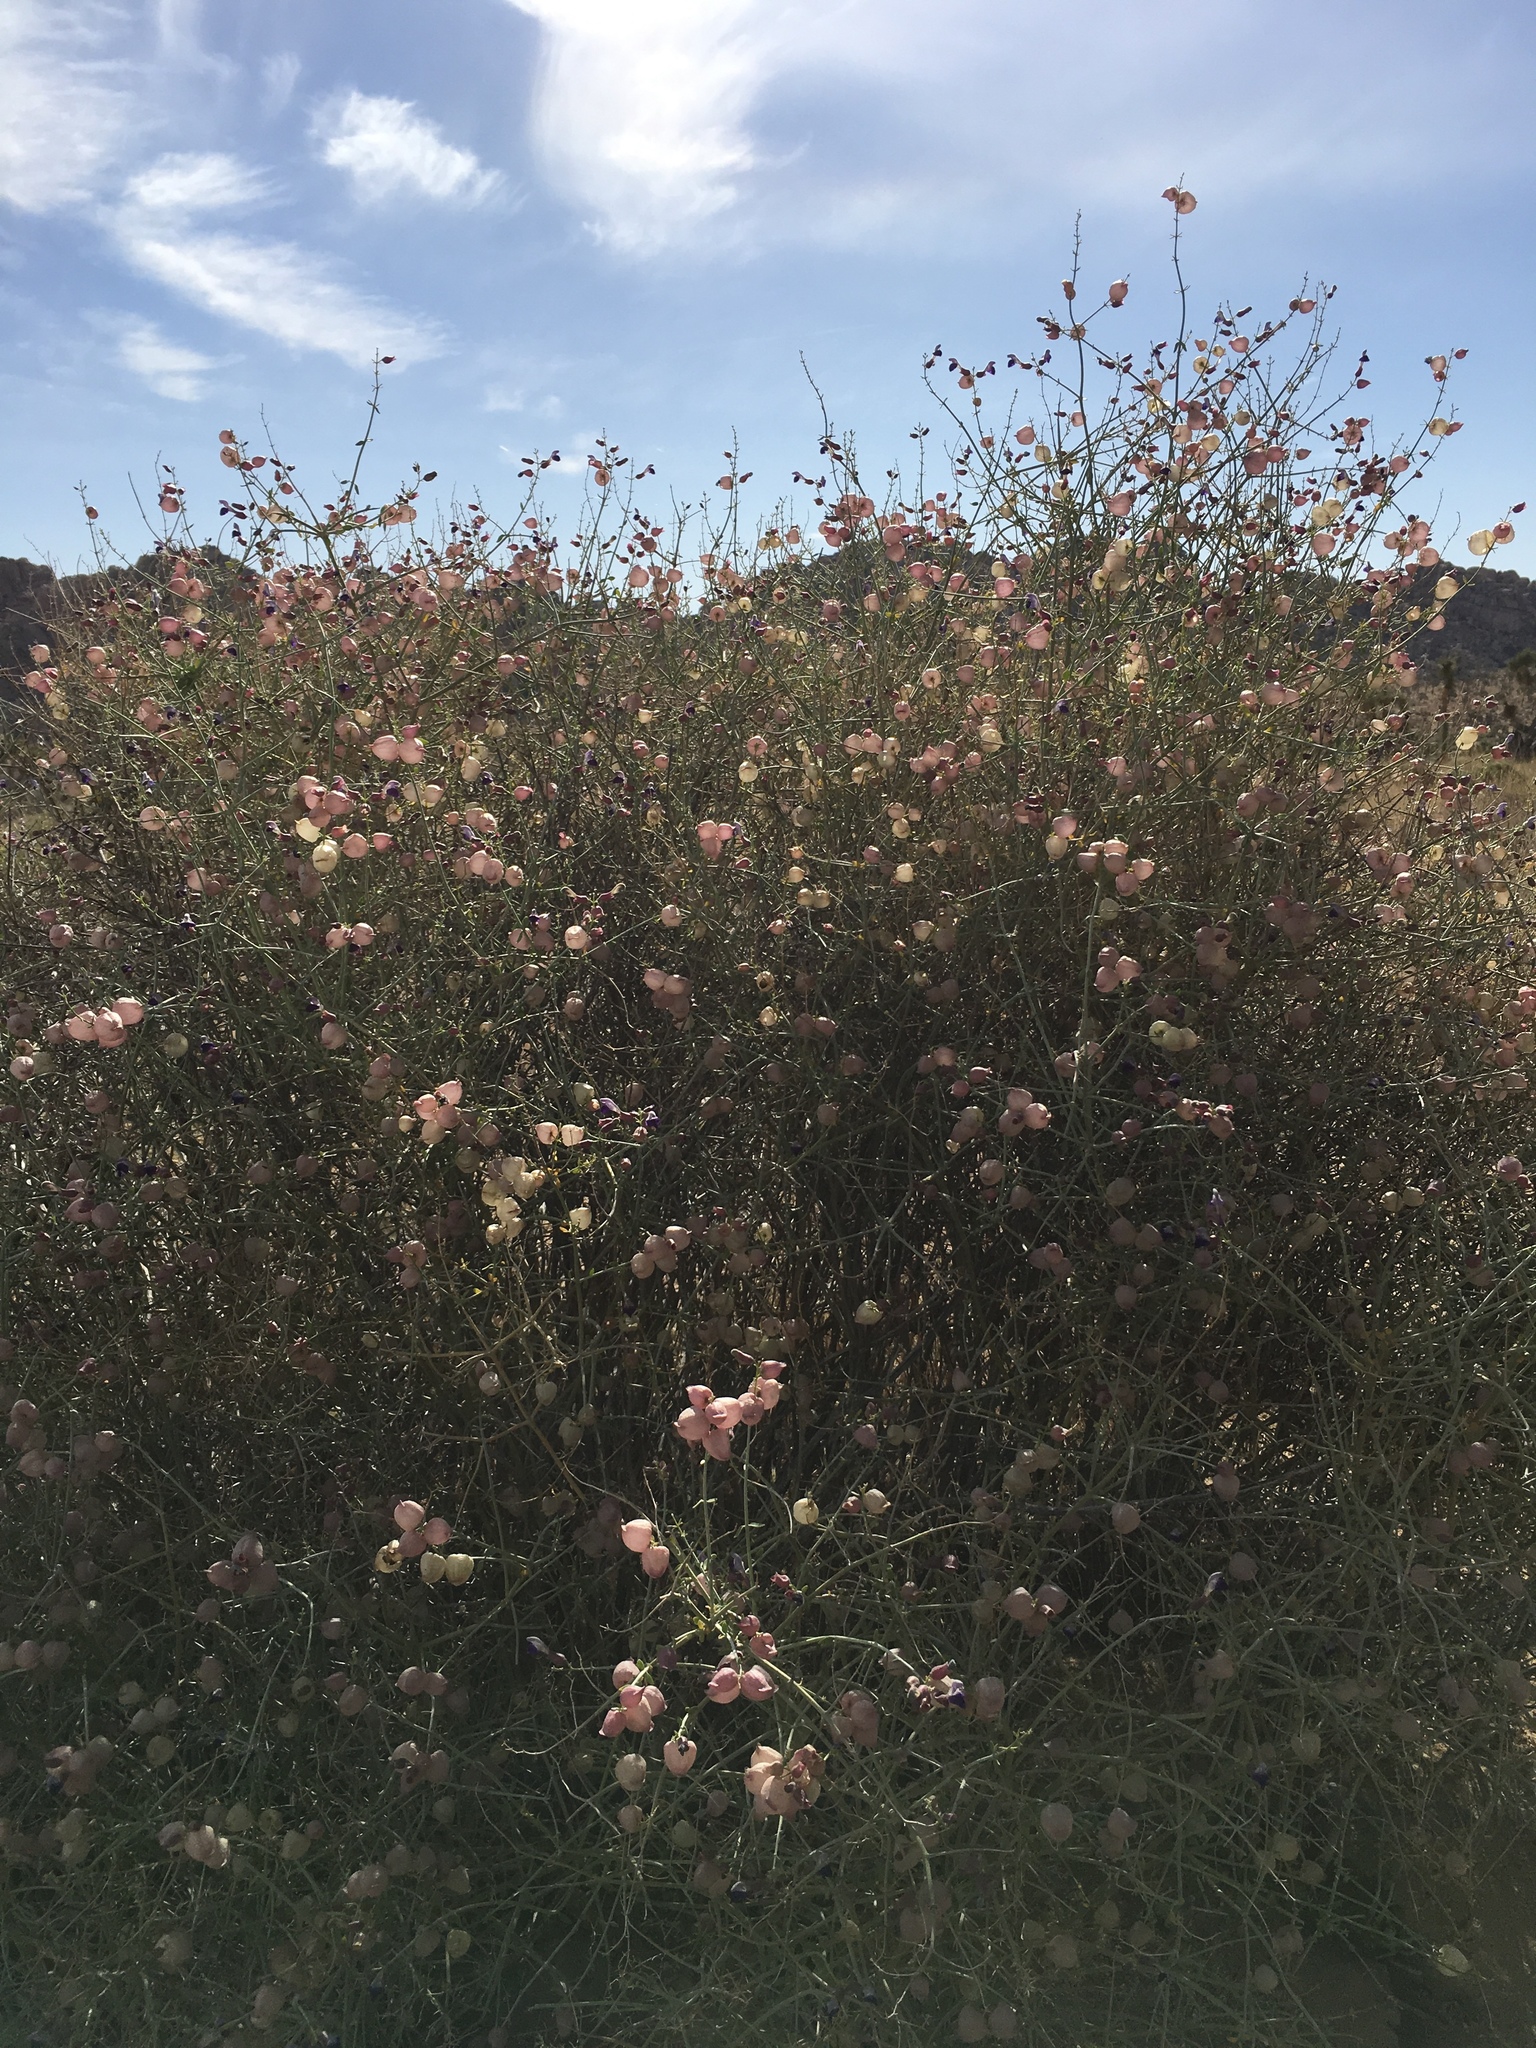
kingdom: Plantae
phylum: Tracheophyta
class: Magnoliopsida
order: Lamiales
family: Lamiaceae
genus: Scutellaria
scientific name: Scutellaria mexicana
